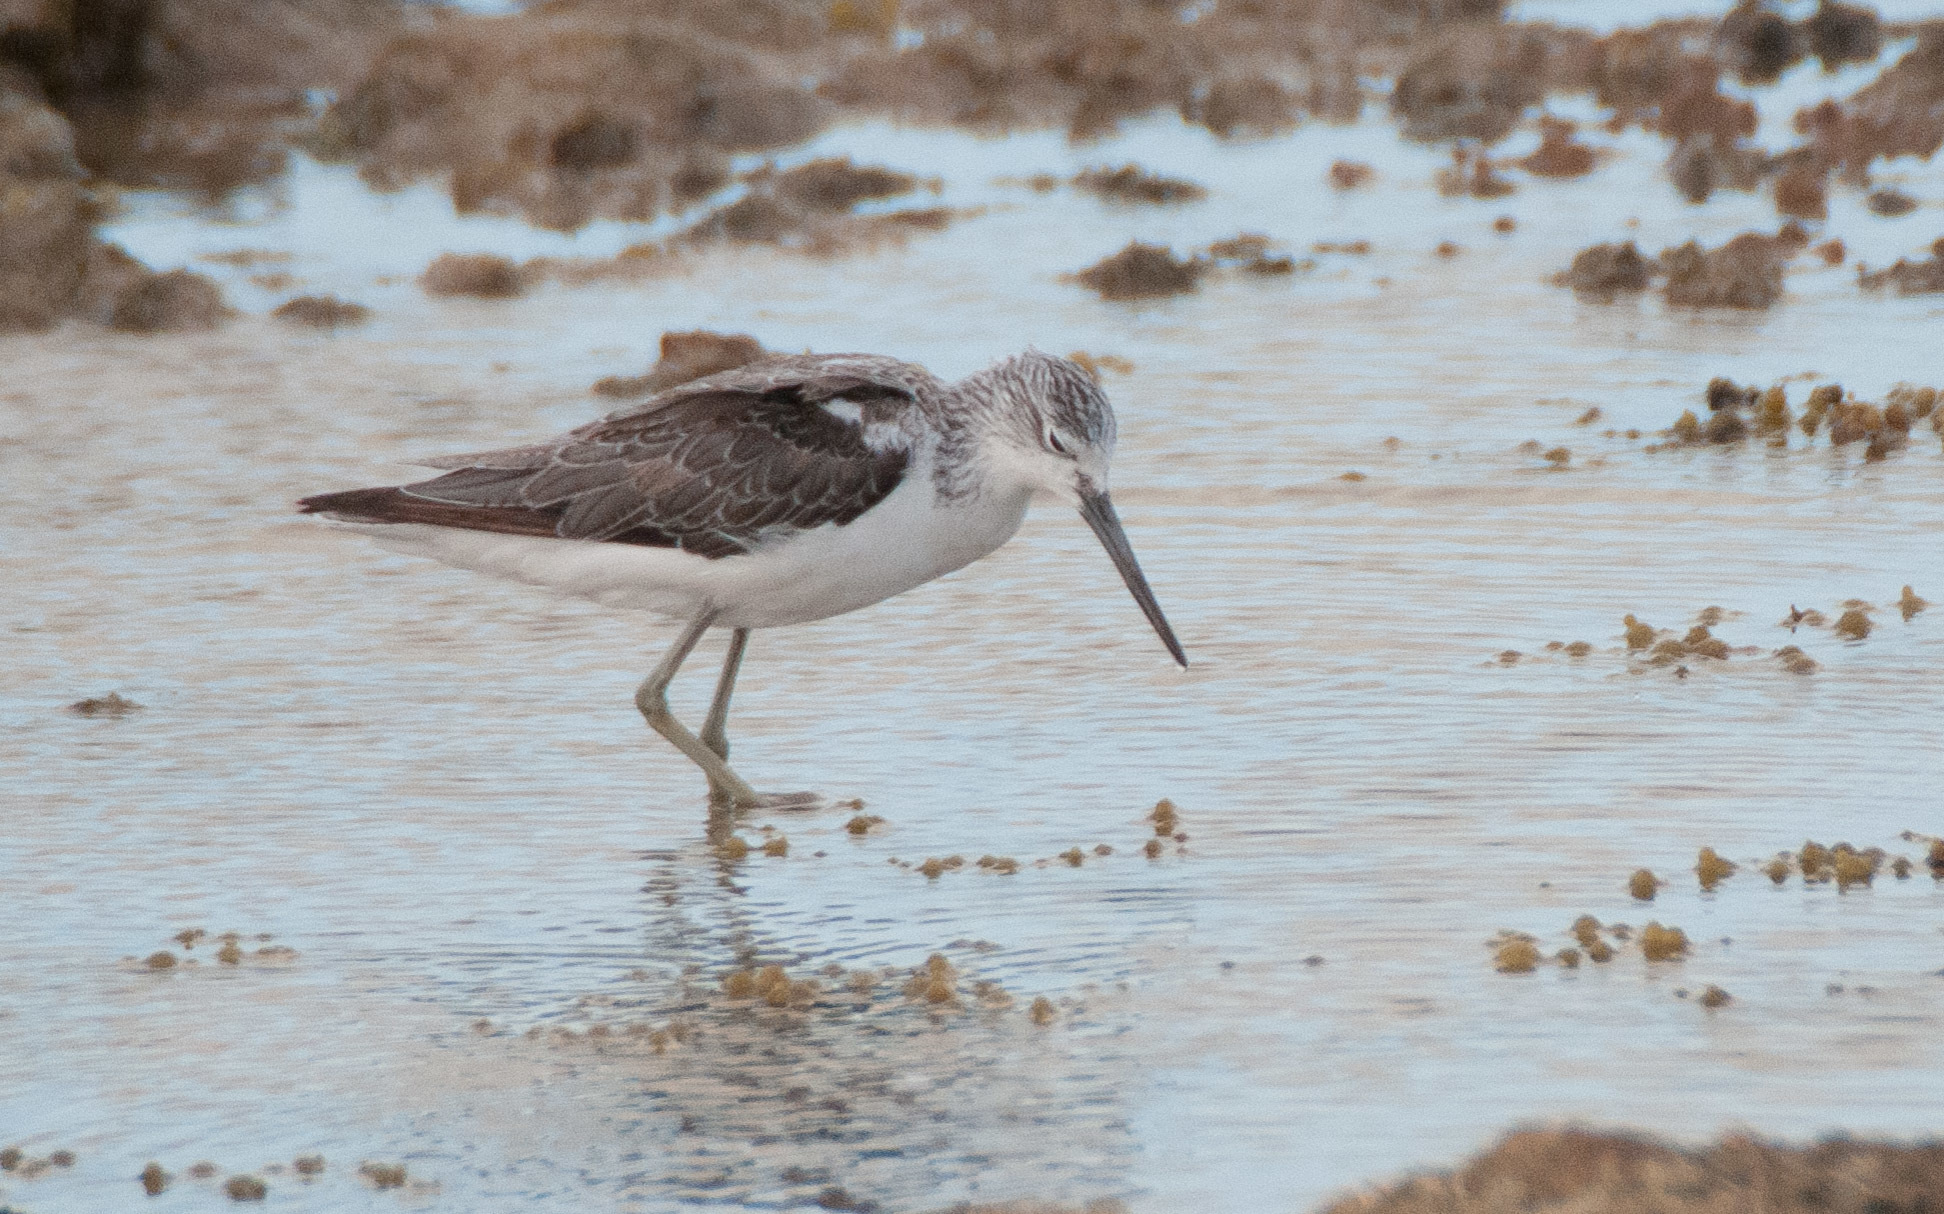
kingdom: Animalia
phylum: Chordata
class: Aves
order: Charadriiformes
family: Scolopacidae
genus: Tringa
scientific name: Tringa nebularia
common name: Common greenshank
